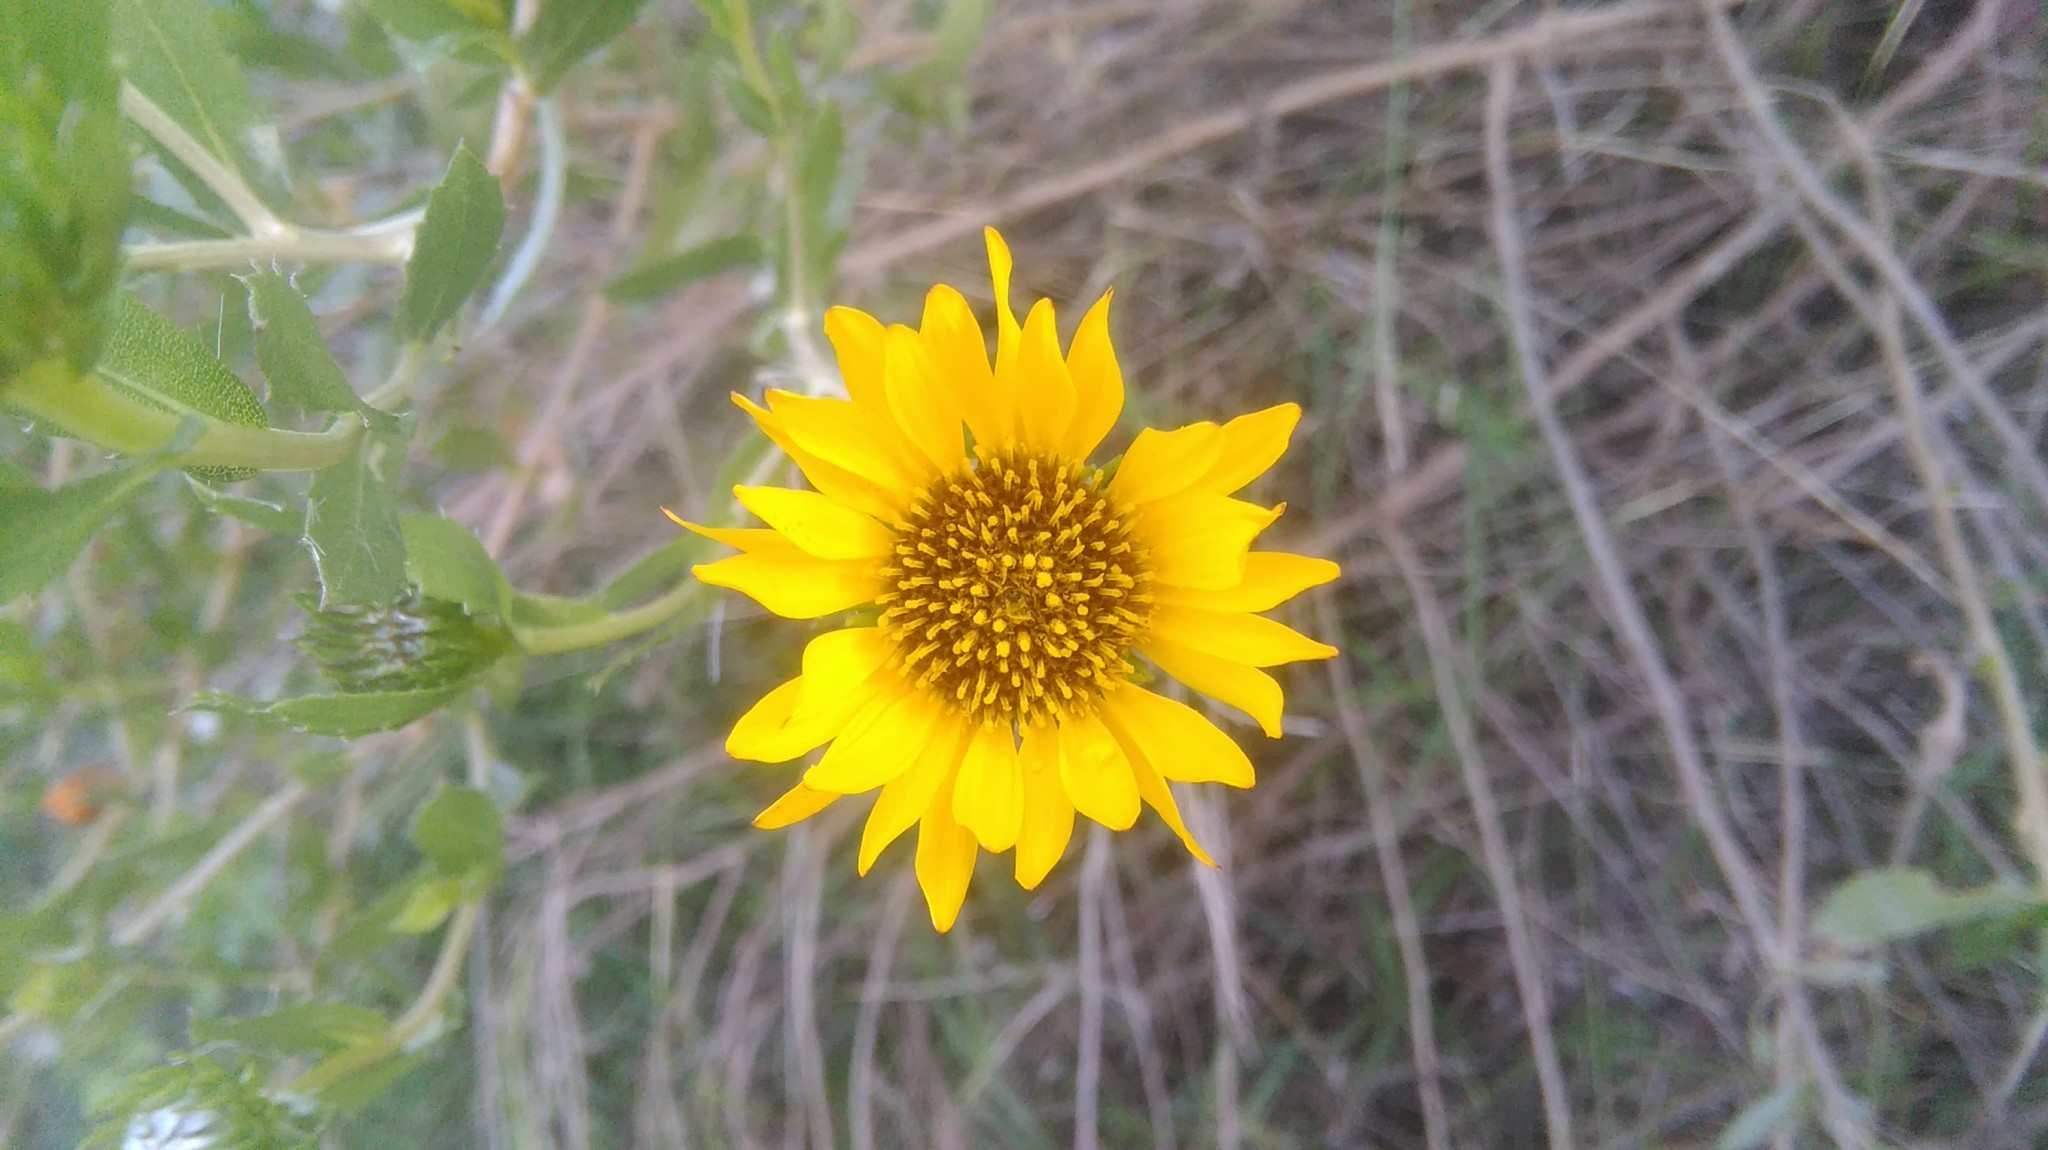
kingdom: Plantae
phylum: Tracheophyta
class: Magnoliopsida
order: Asterales
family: Asteraceae
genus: Grindelia
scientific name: Grindelia pulchella
